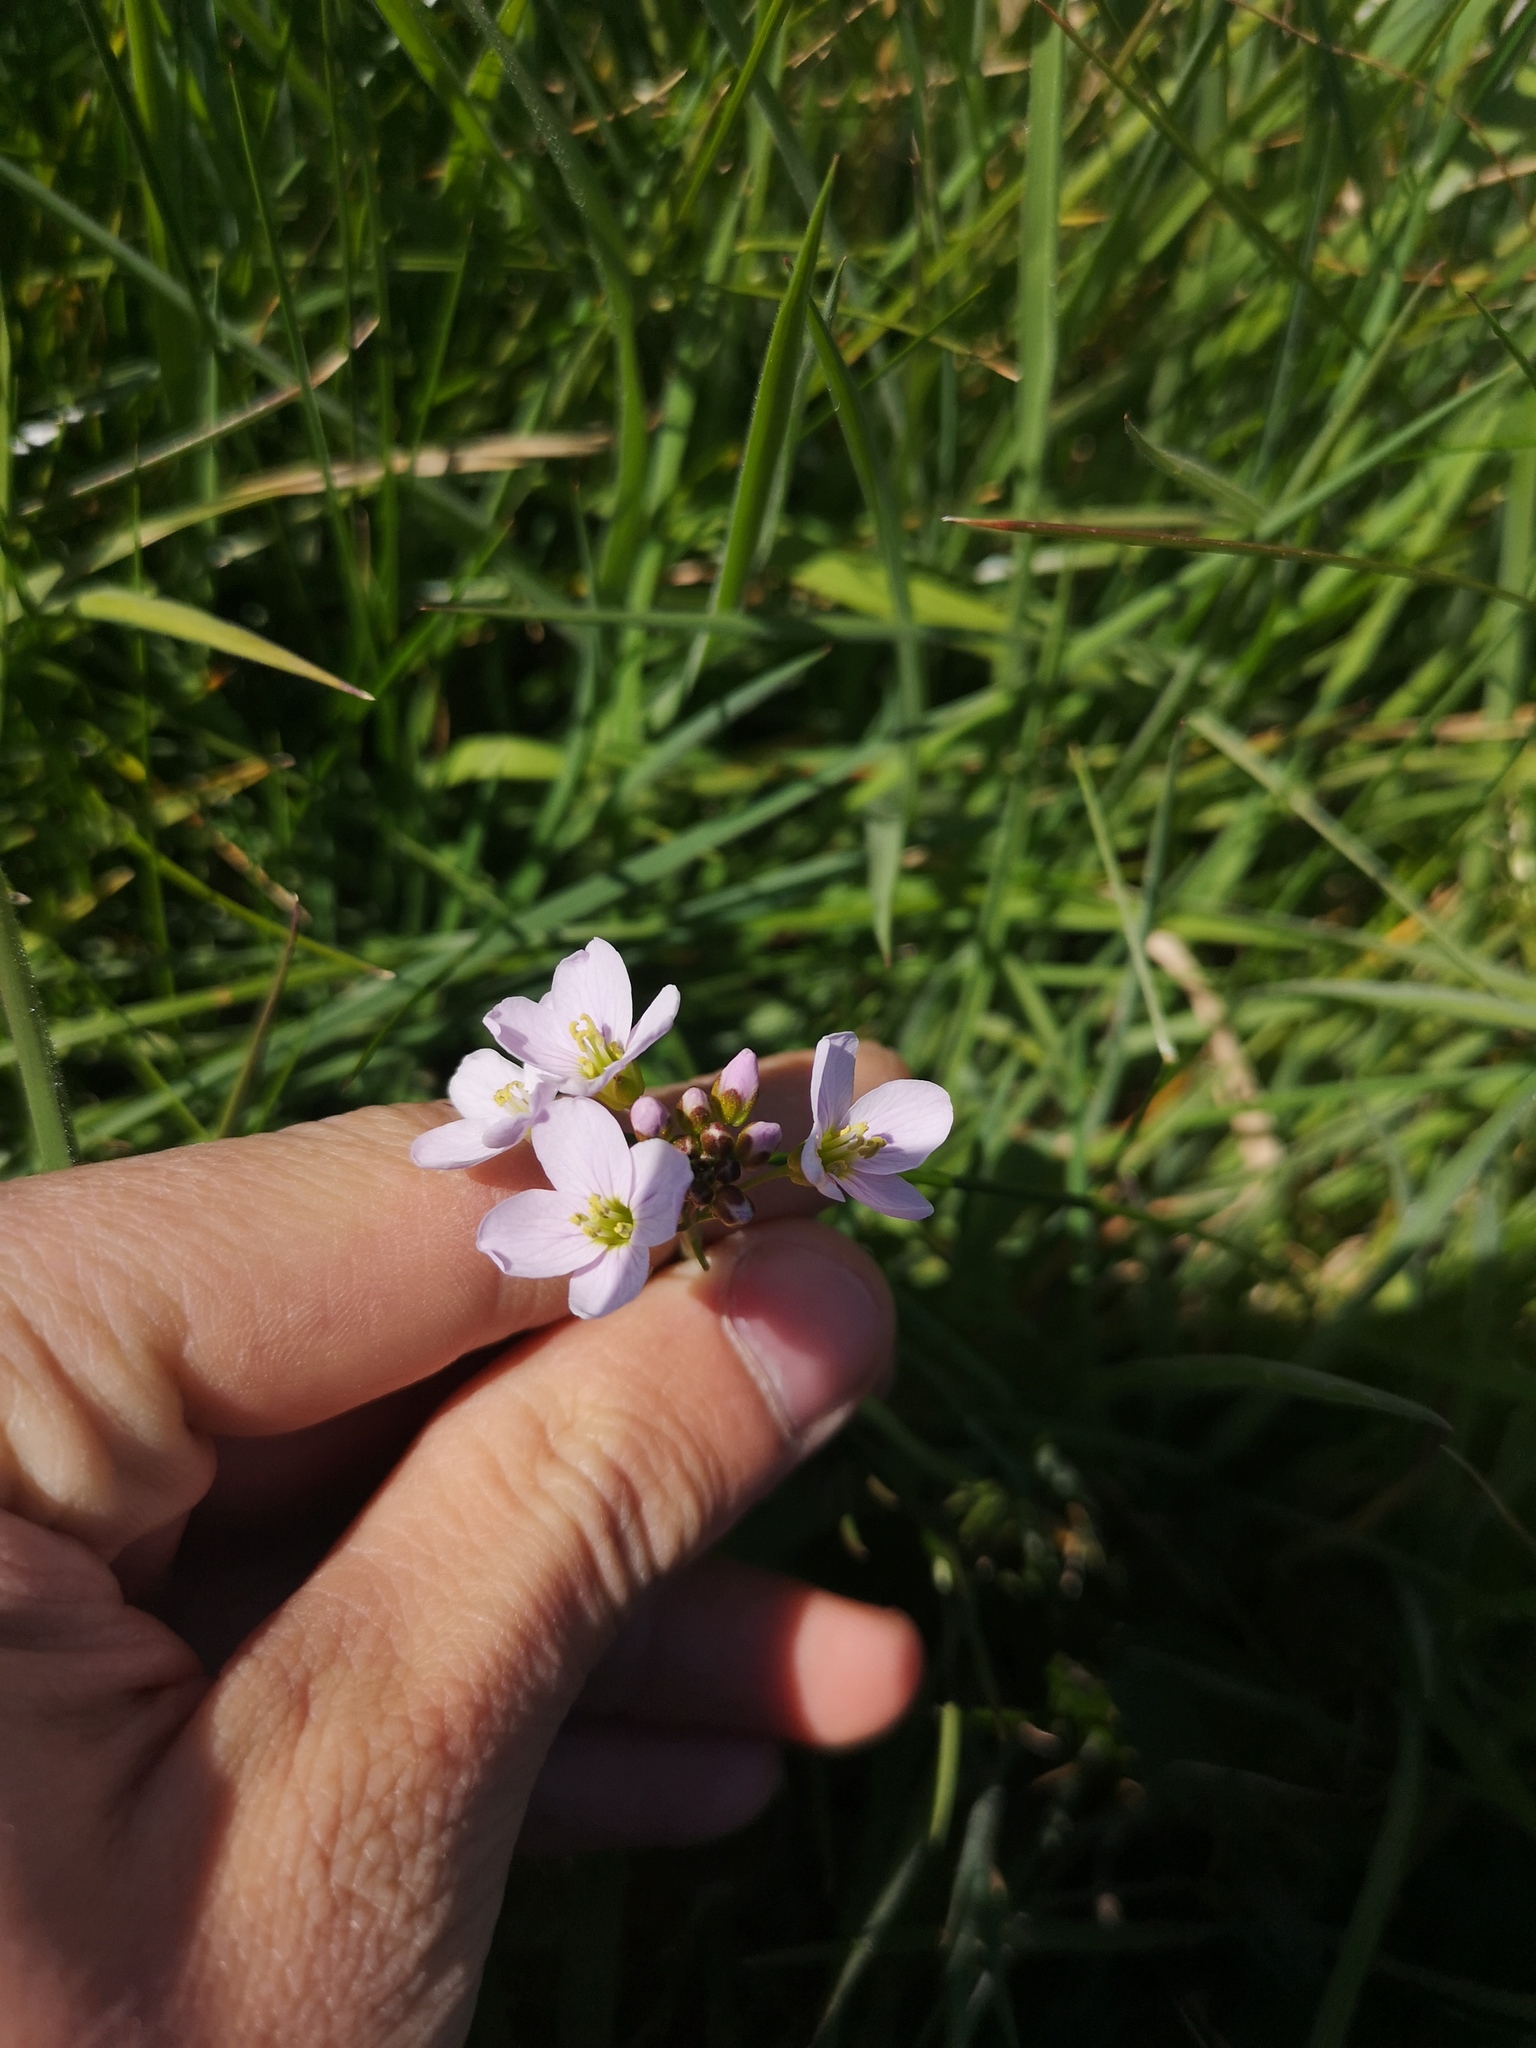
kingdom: Plantae
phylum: Tracheophyta
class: Magnoliopsida
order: Brassicales
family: Brassicaceae
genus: Cardamine
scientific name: Cardamine pratensis
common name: Cuckoo flower
